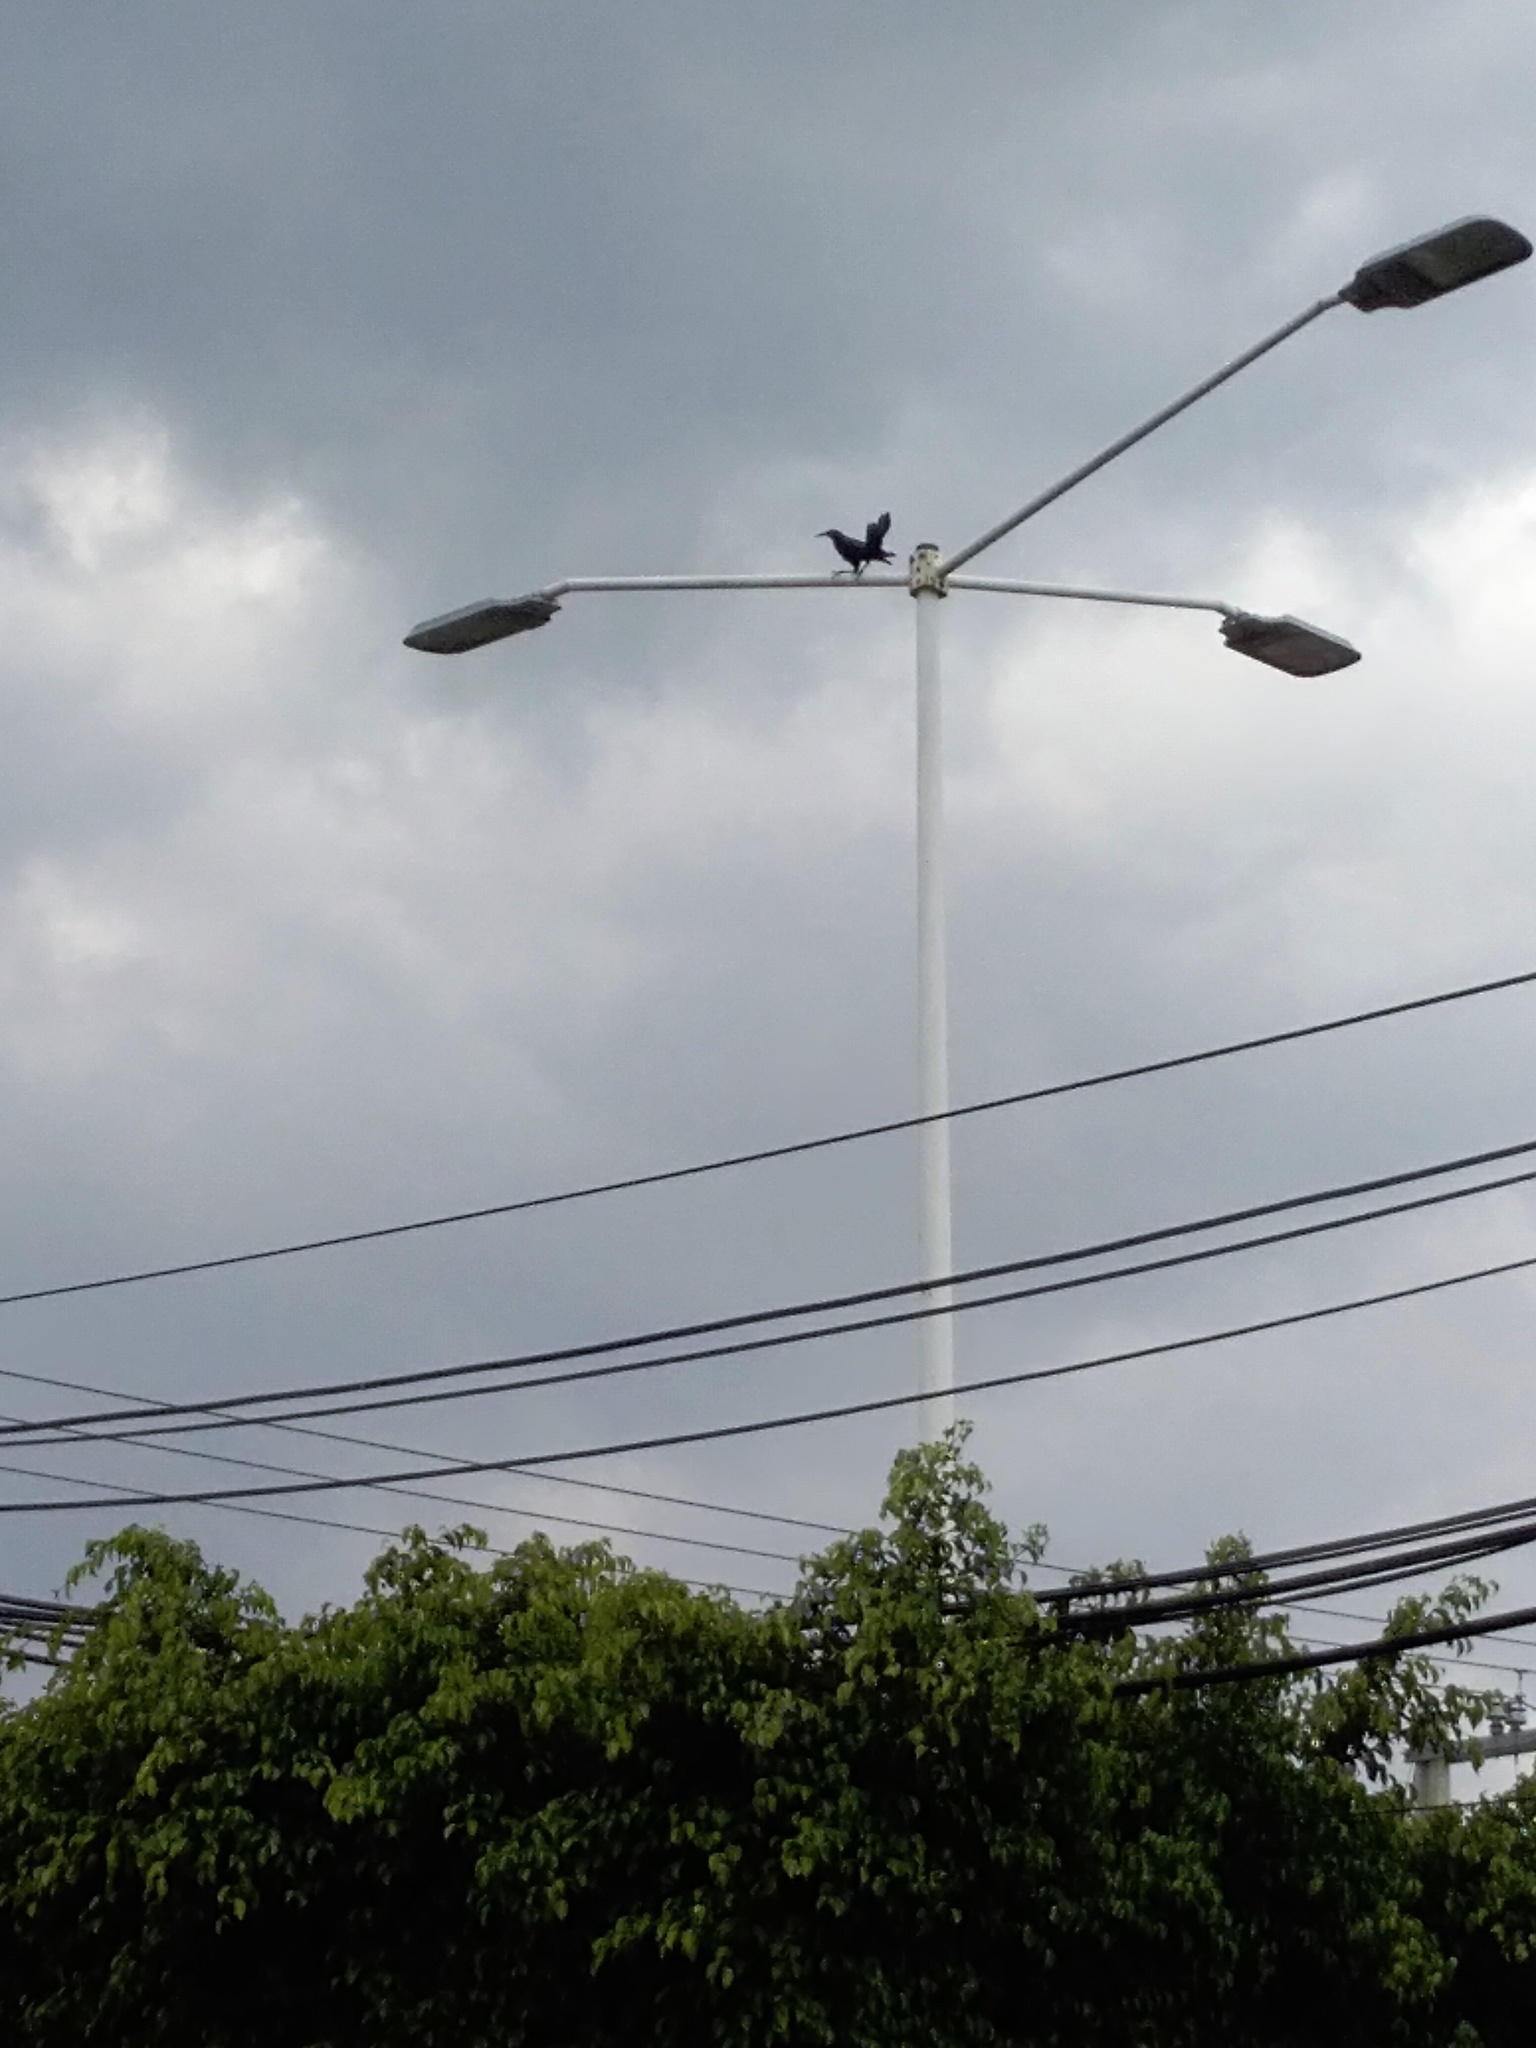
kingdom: Animalia
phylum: Chordata
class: Aves
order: Passeriformes
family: Icteridae
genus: Quiscalus
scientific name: Quiscalus mexicanus
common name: Great-tailed grackle
